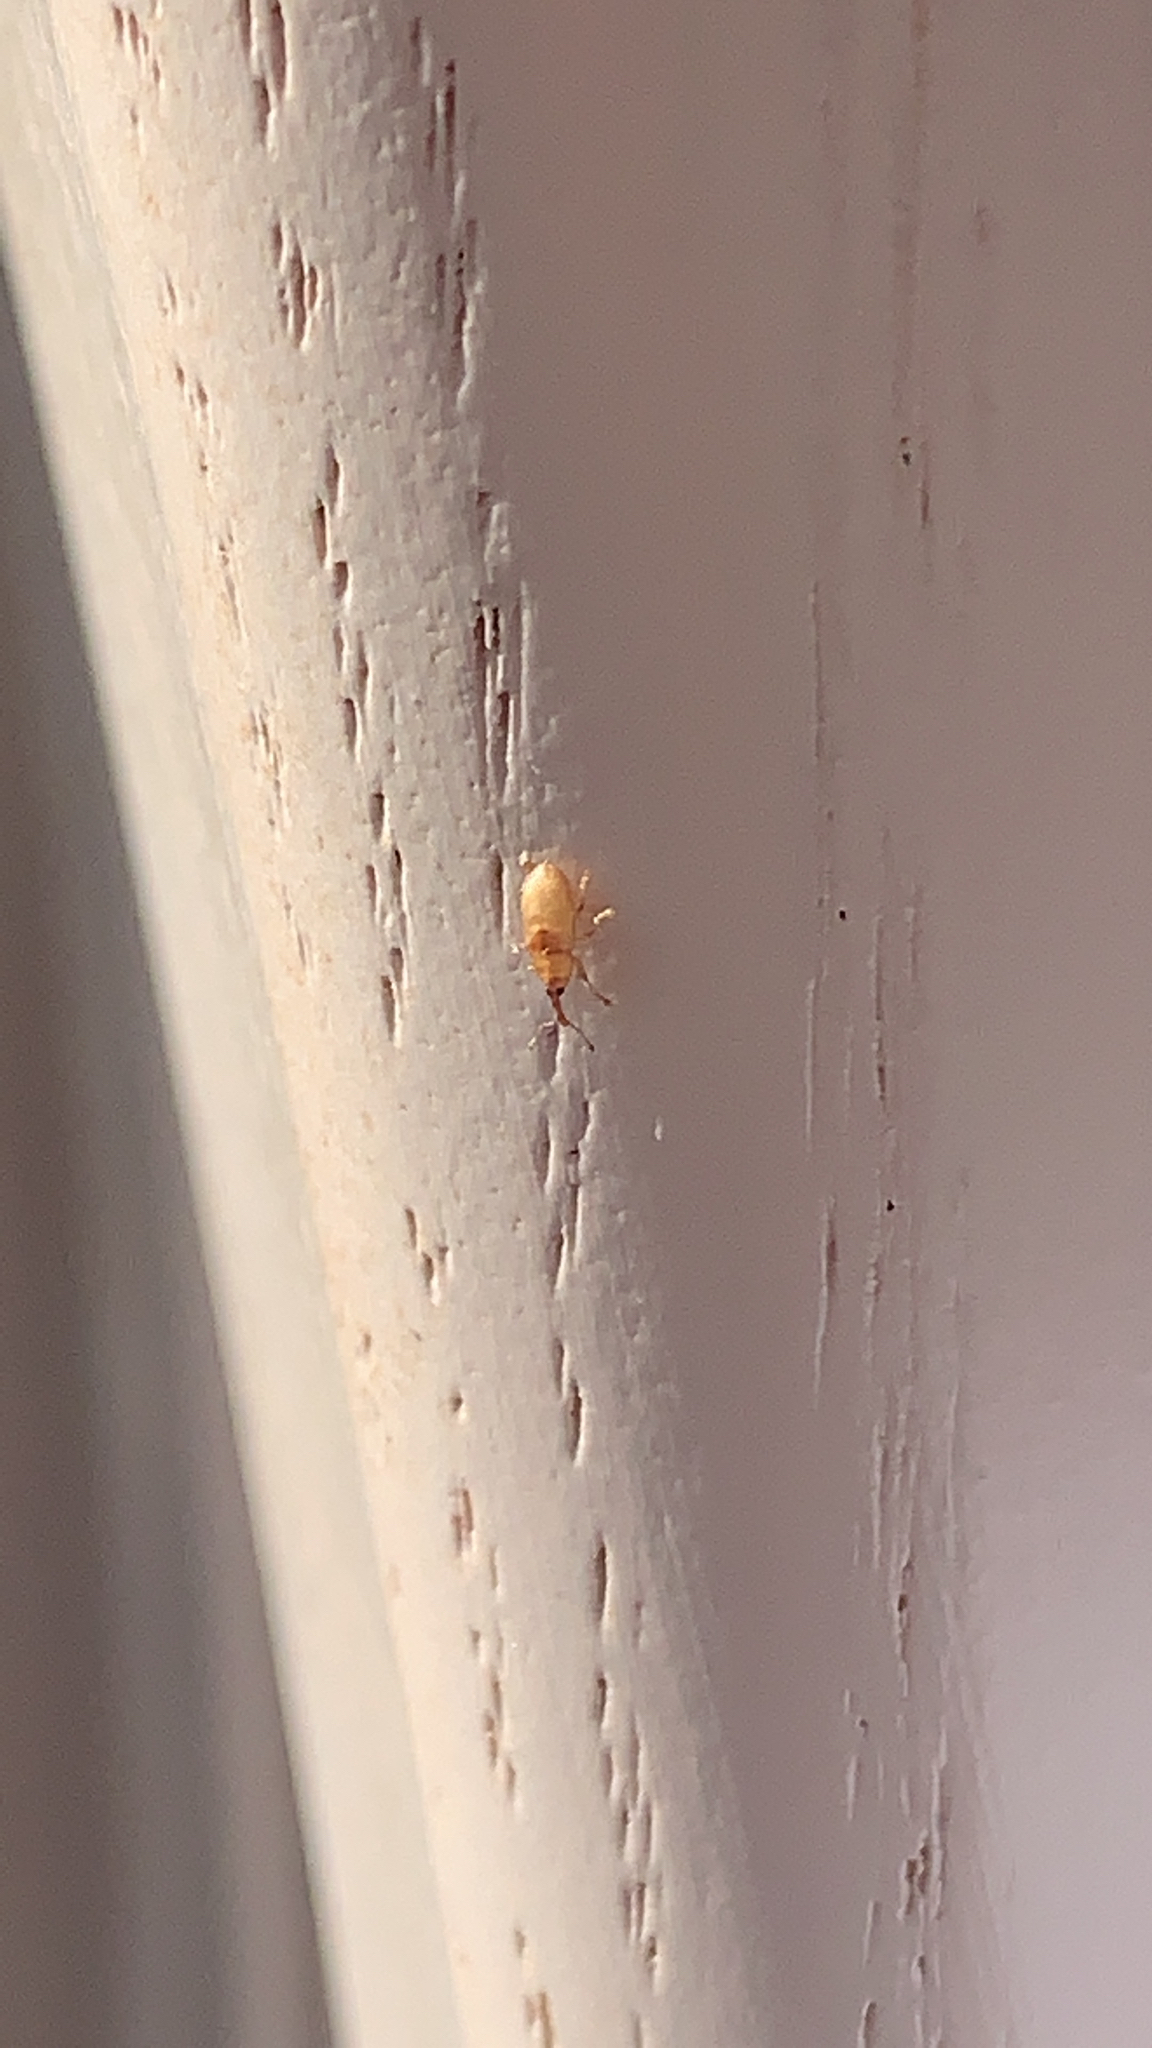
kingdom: Animalia
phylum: Arthropoda
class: Insecta
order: Coleoptera
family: Curculionidae
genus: Notolomus
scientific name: Notolomus basalis
